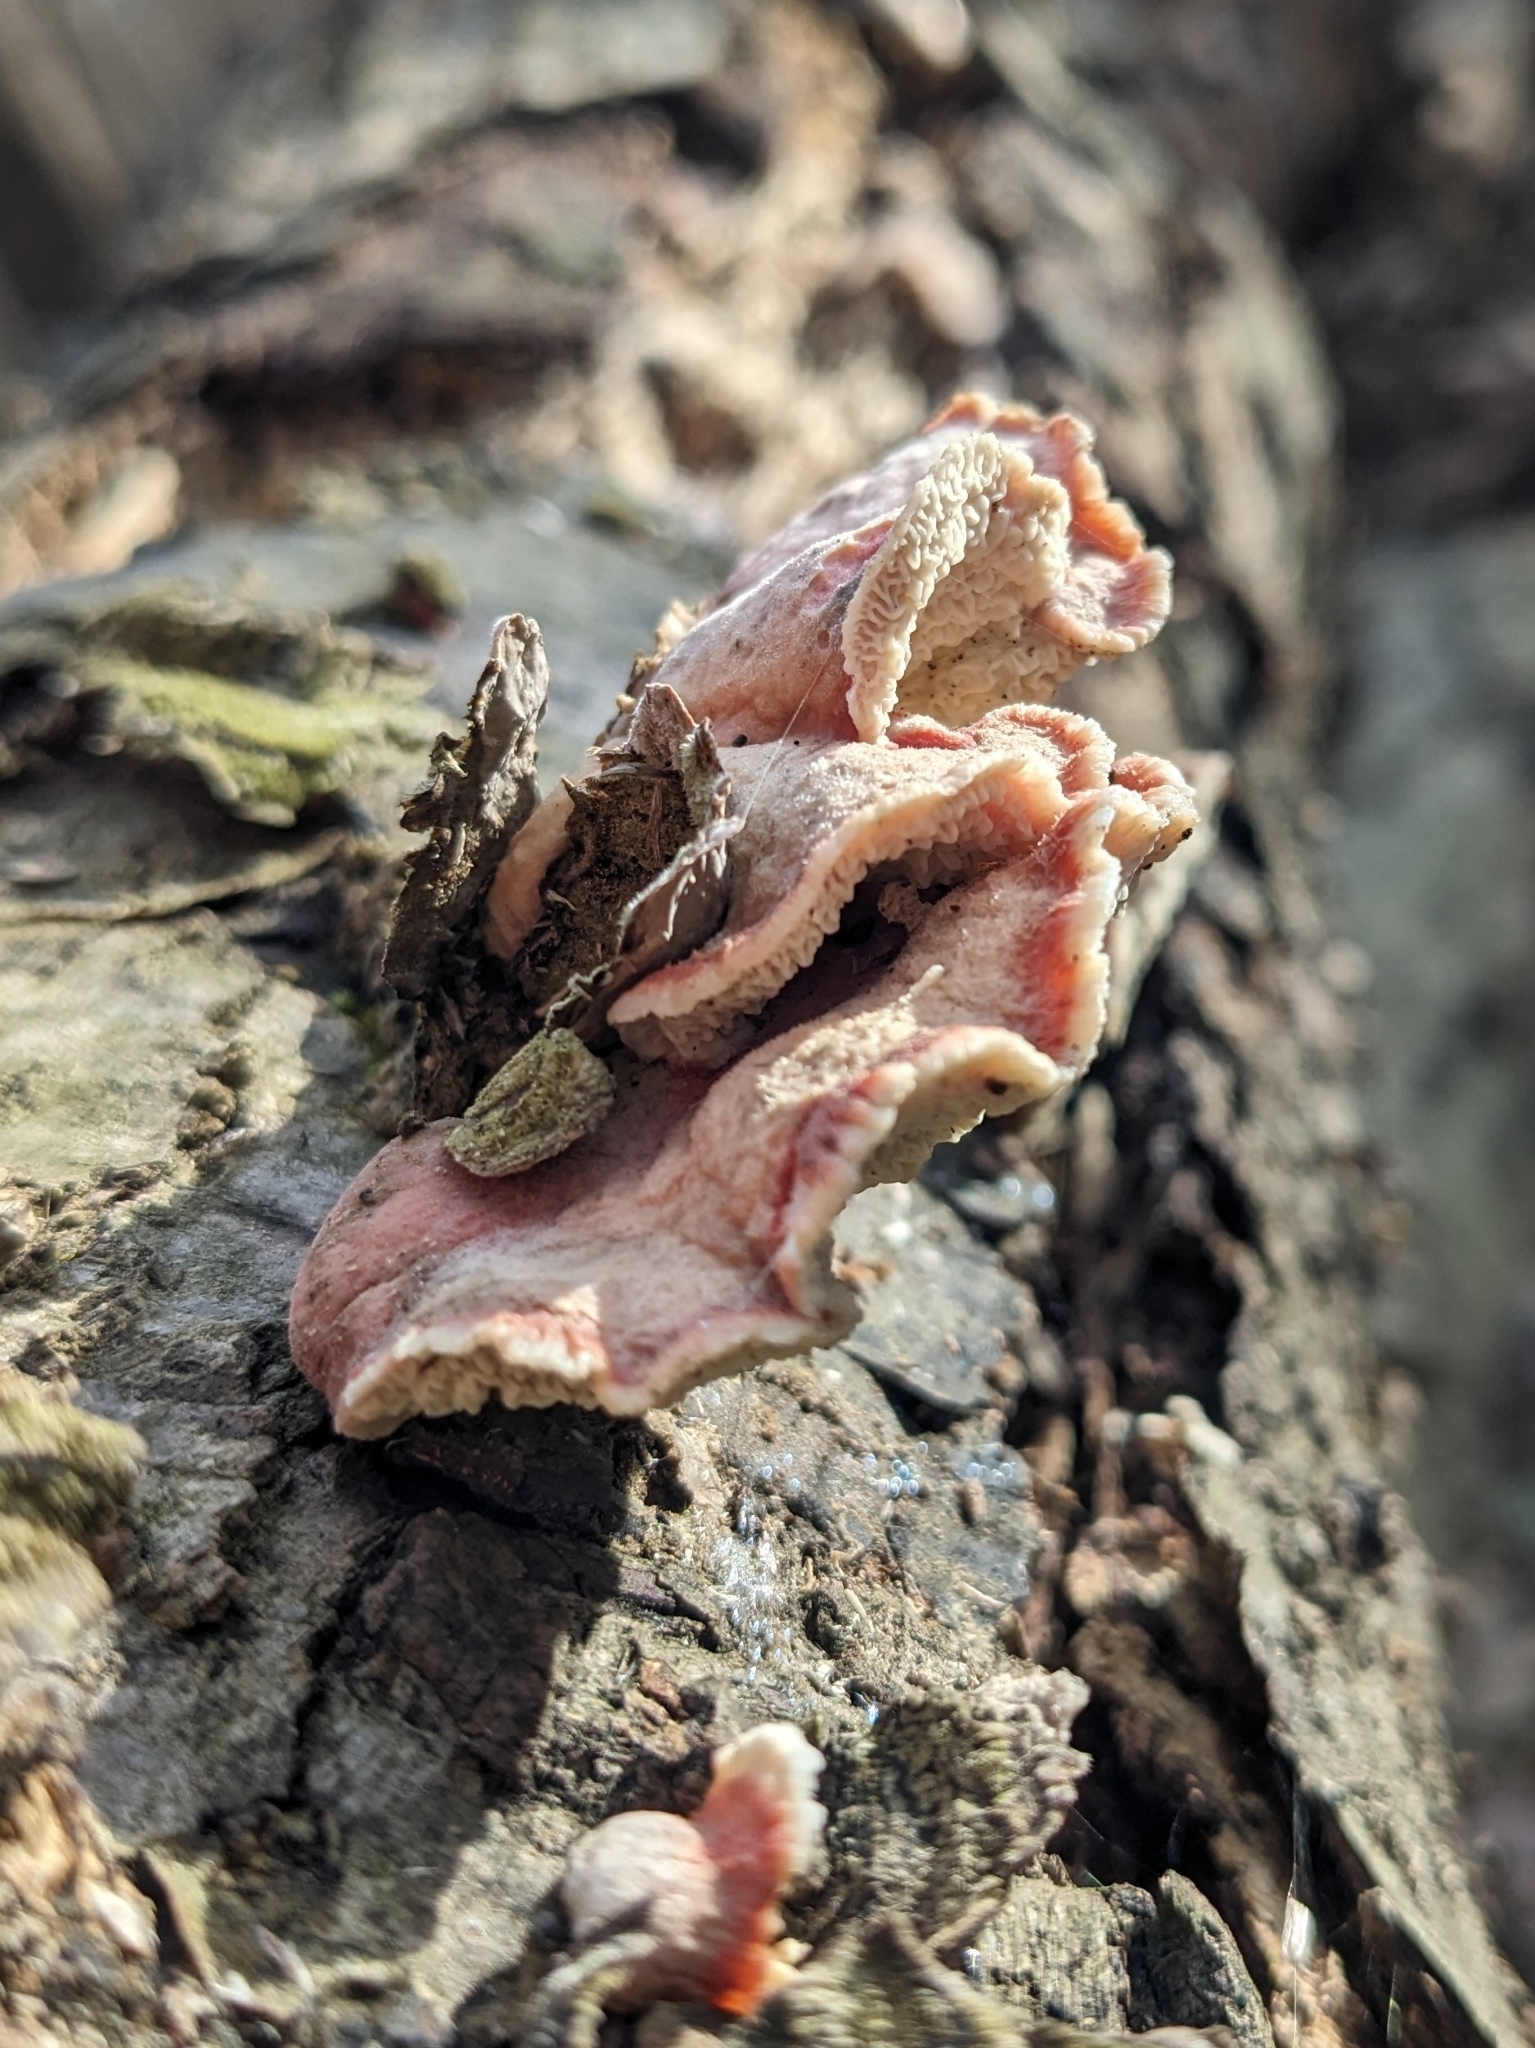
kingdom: Fungi
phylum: Basidiomycota
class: Agaricomycetes
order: Polyporales
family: Irpicaceae
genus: Byssomerulius
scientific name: Byssomerulius incarnatus
